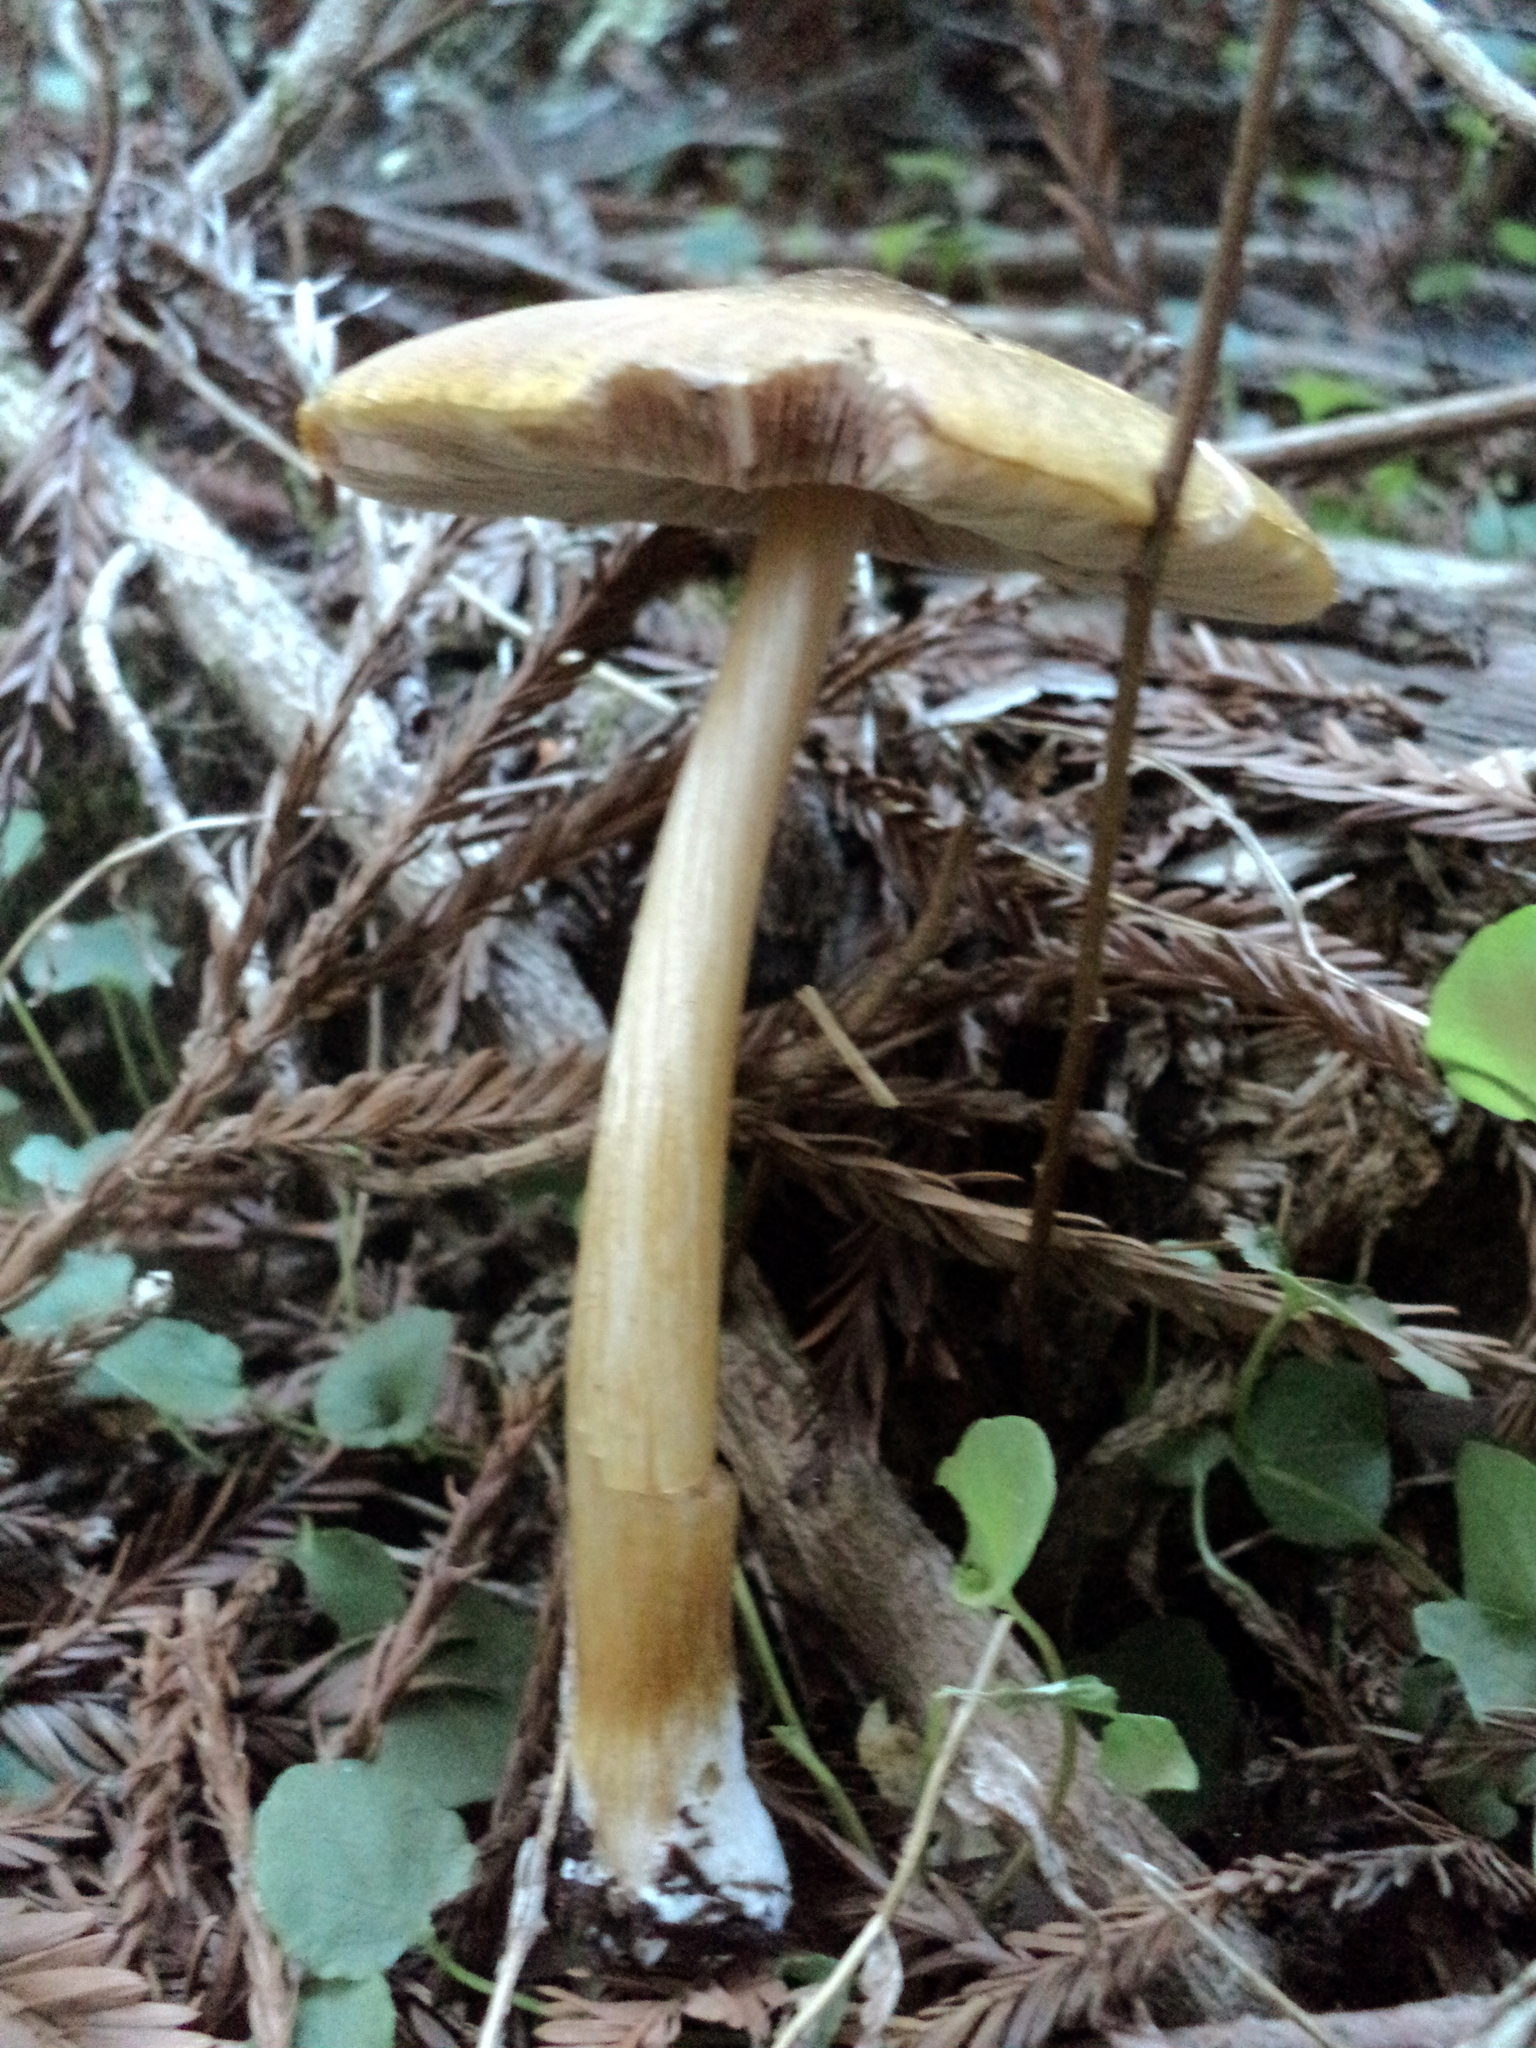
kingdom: Fungi
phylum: Basidiomycota
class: Agaricomycetes
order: Agaricales
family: Pluteaceae
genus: Pluteus
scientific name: Pluteus leoninus
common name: Lion shield
